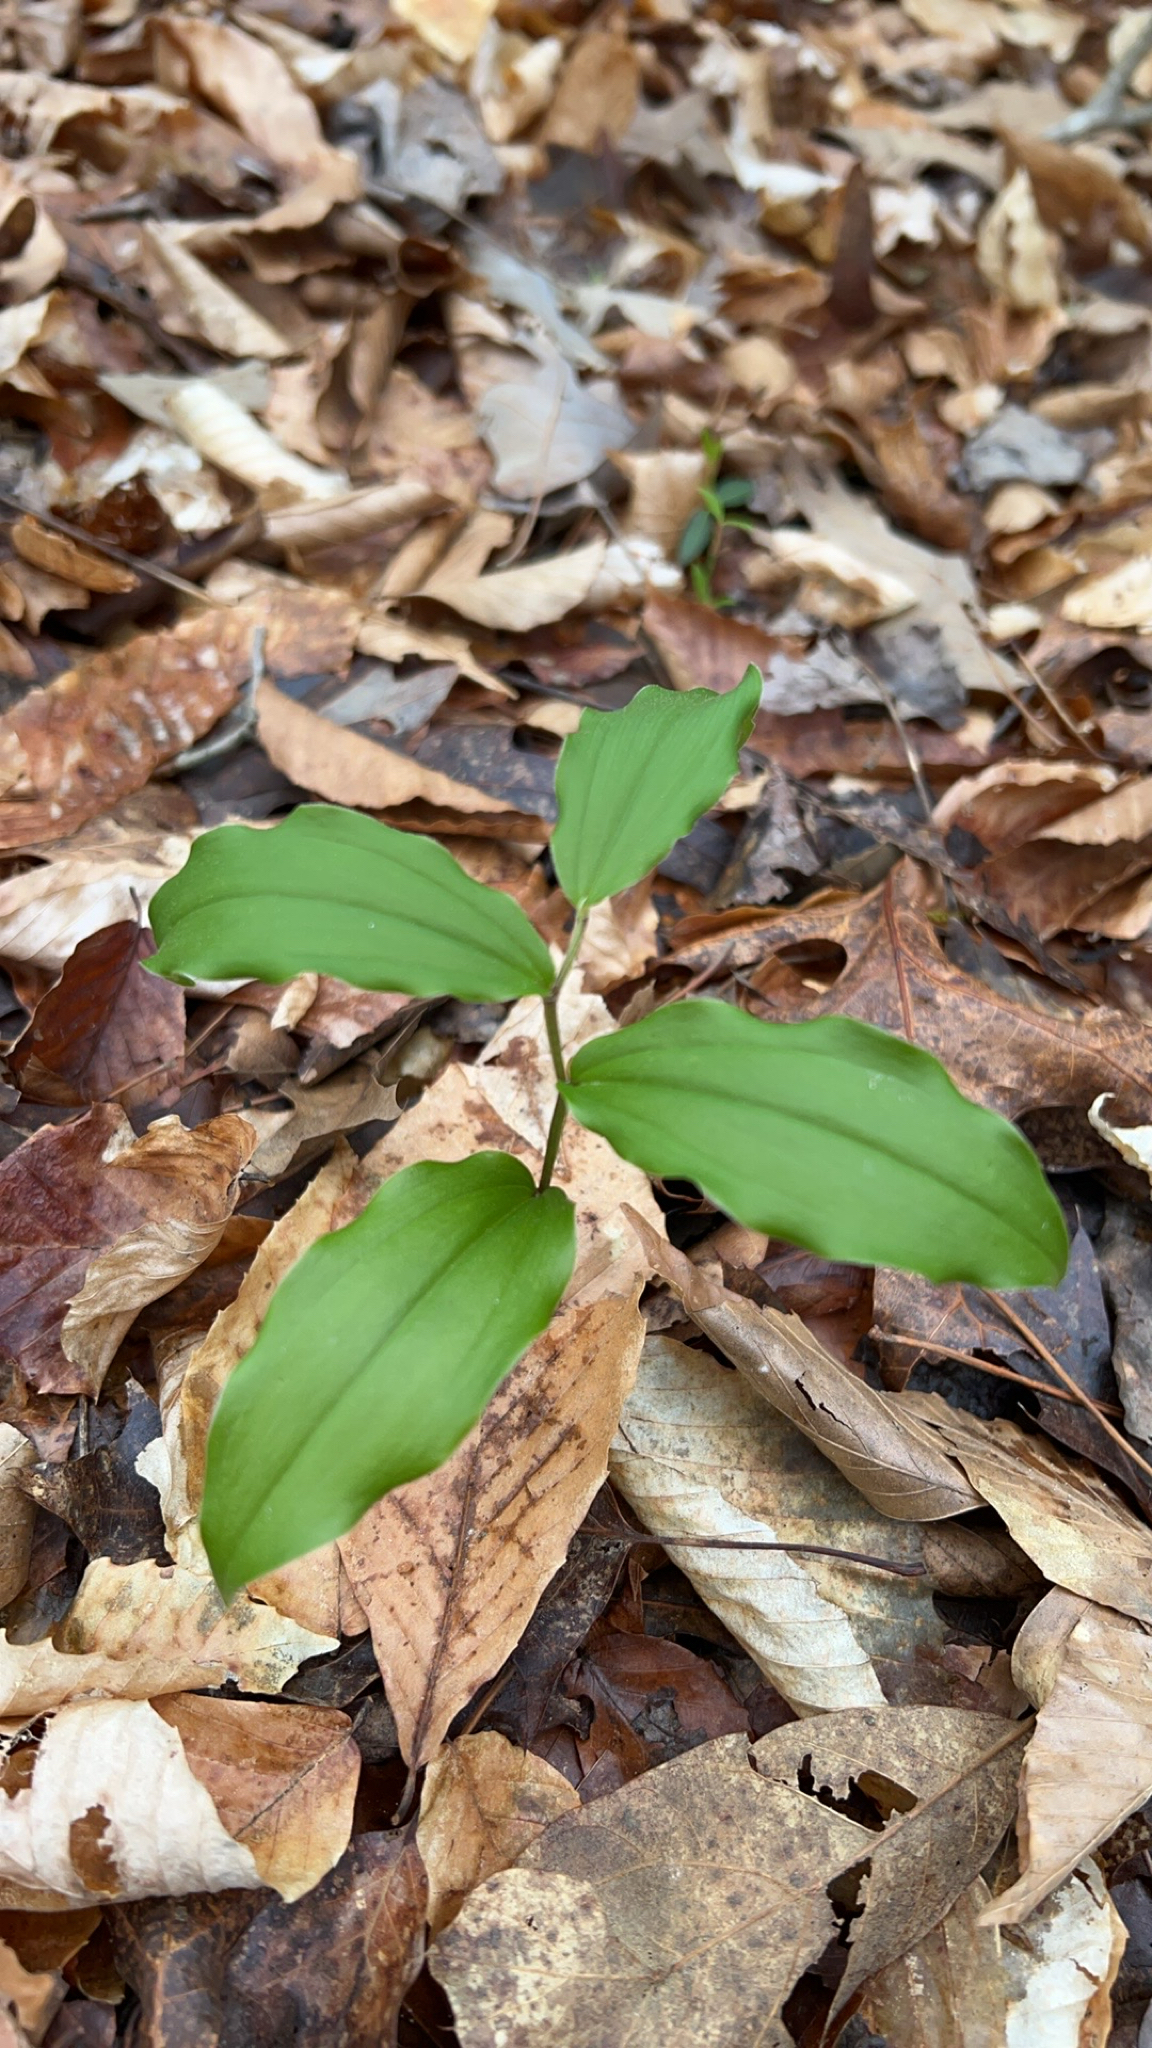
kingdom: Plantae
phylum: Tracheophyta
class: Liliopsida
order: Asparagales
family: Asparagaceae
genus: Maianthemum
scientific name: Maianthemum racemosum
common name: False spikenard
